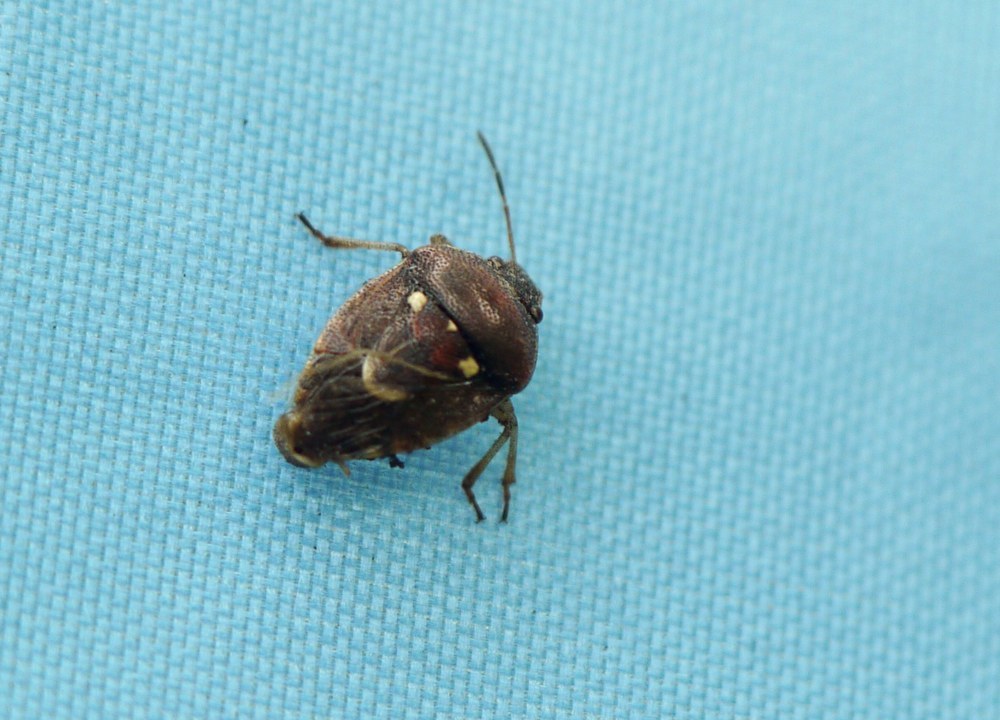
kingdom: Animalia
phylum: Arthropoda
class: Insecta
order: Hemiptera
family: Pentatomidae
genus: Stagonomus
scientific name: Stagonomus amoenus
